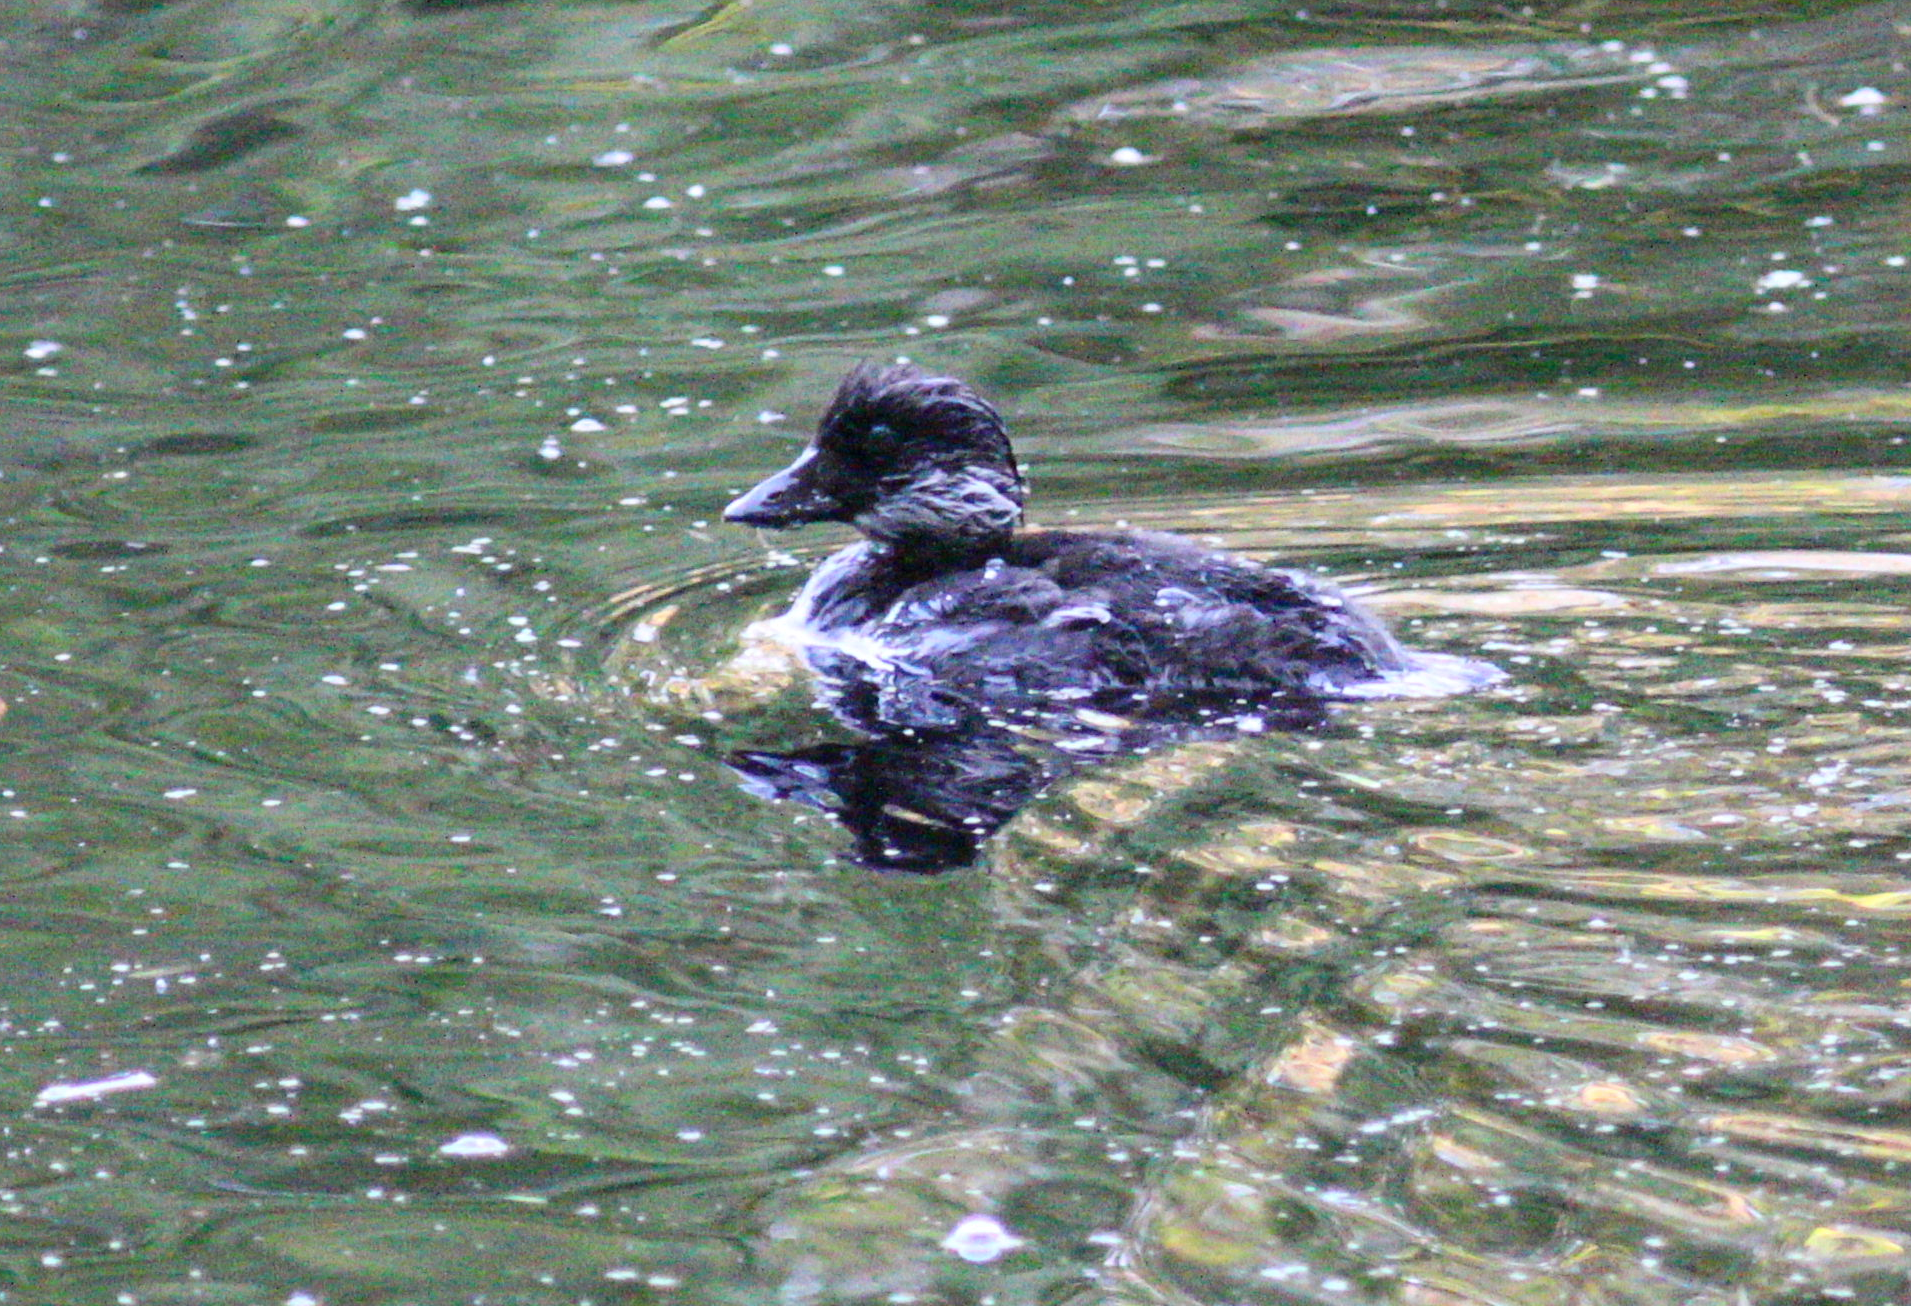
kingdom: Animalia
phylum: Chordata
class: Aves
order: Anseriformes
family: Anatidae
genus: Bucephala
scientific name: Bucephala clangula
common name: Common goldeneye
